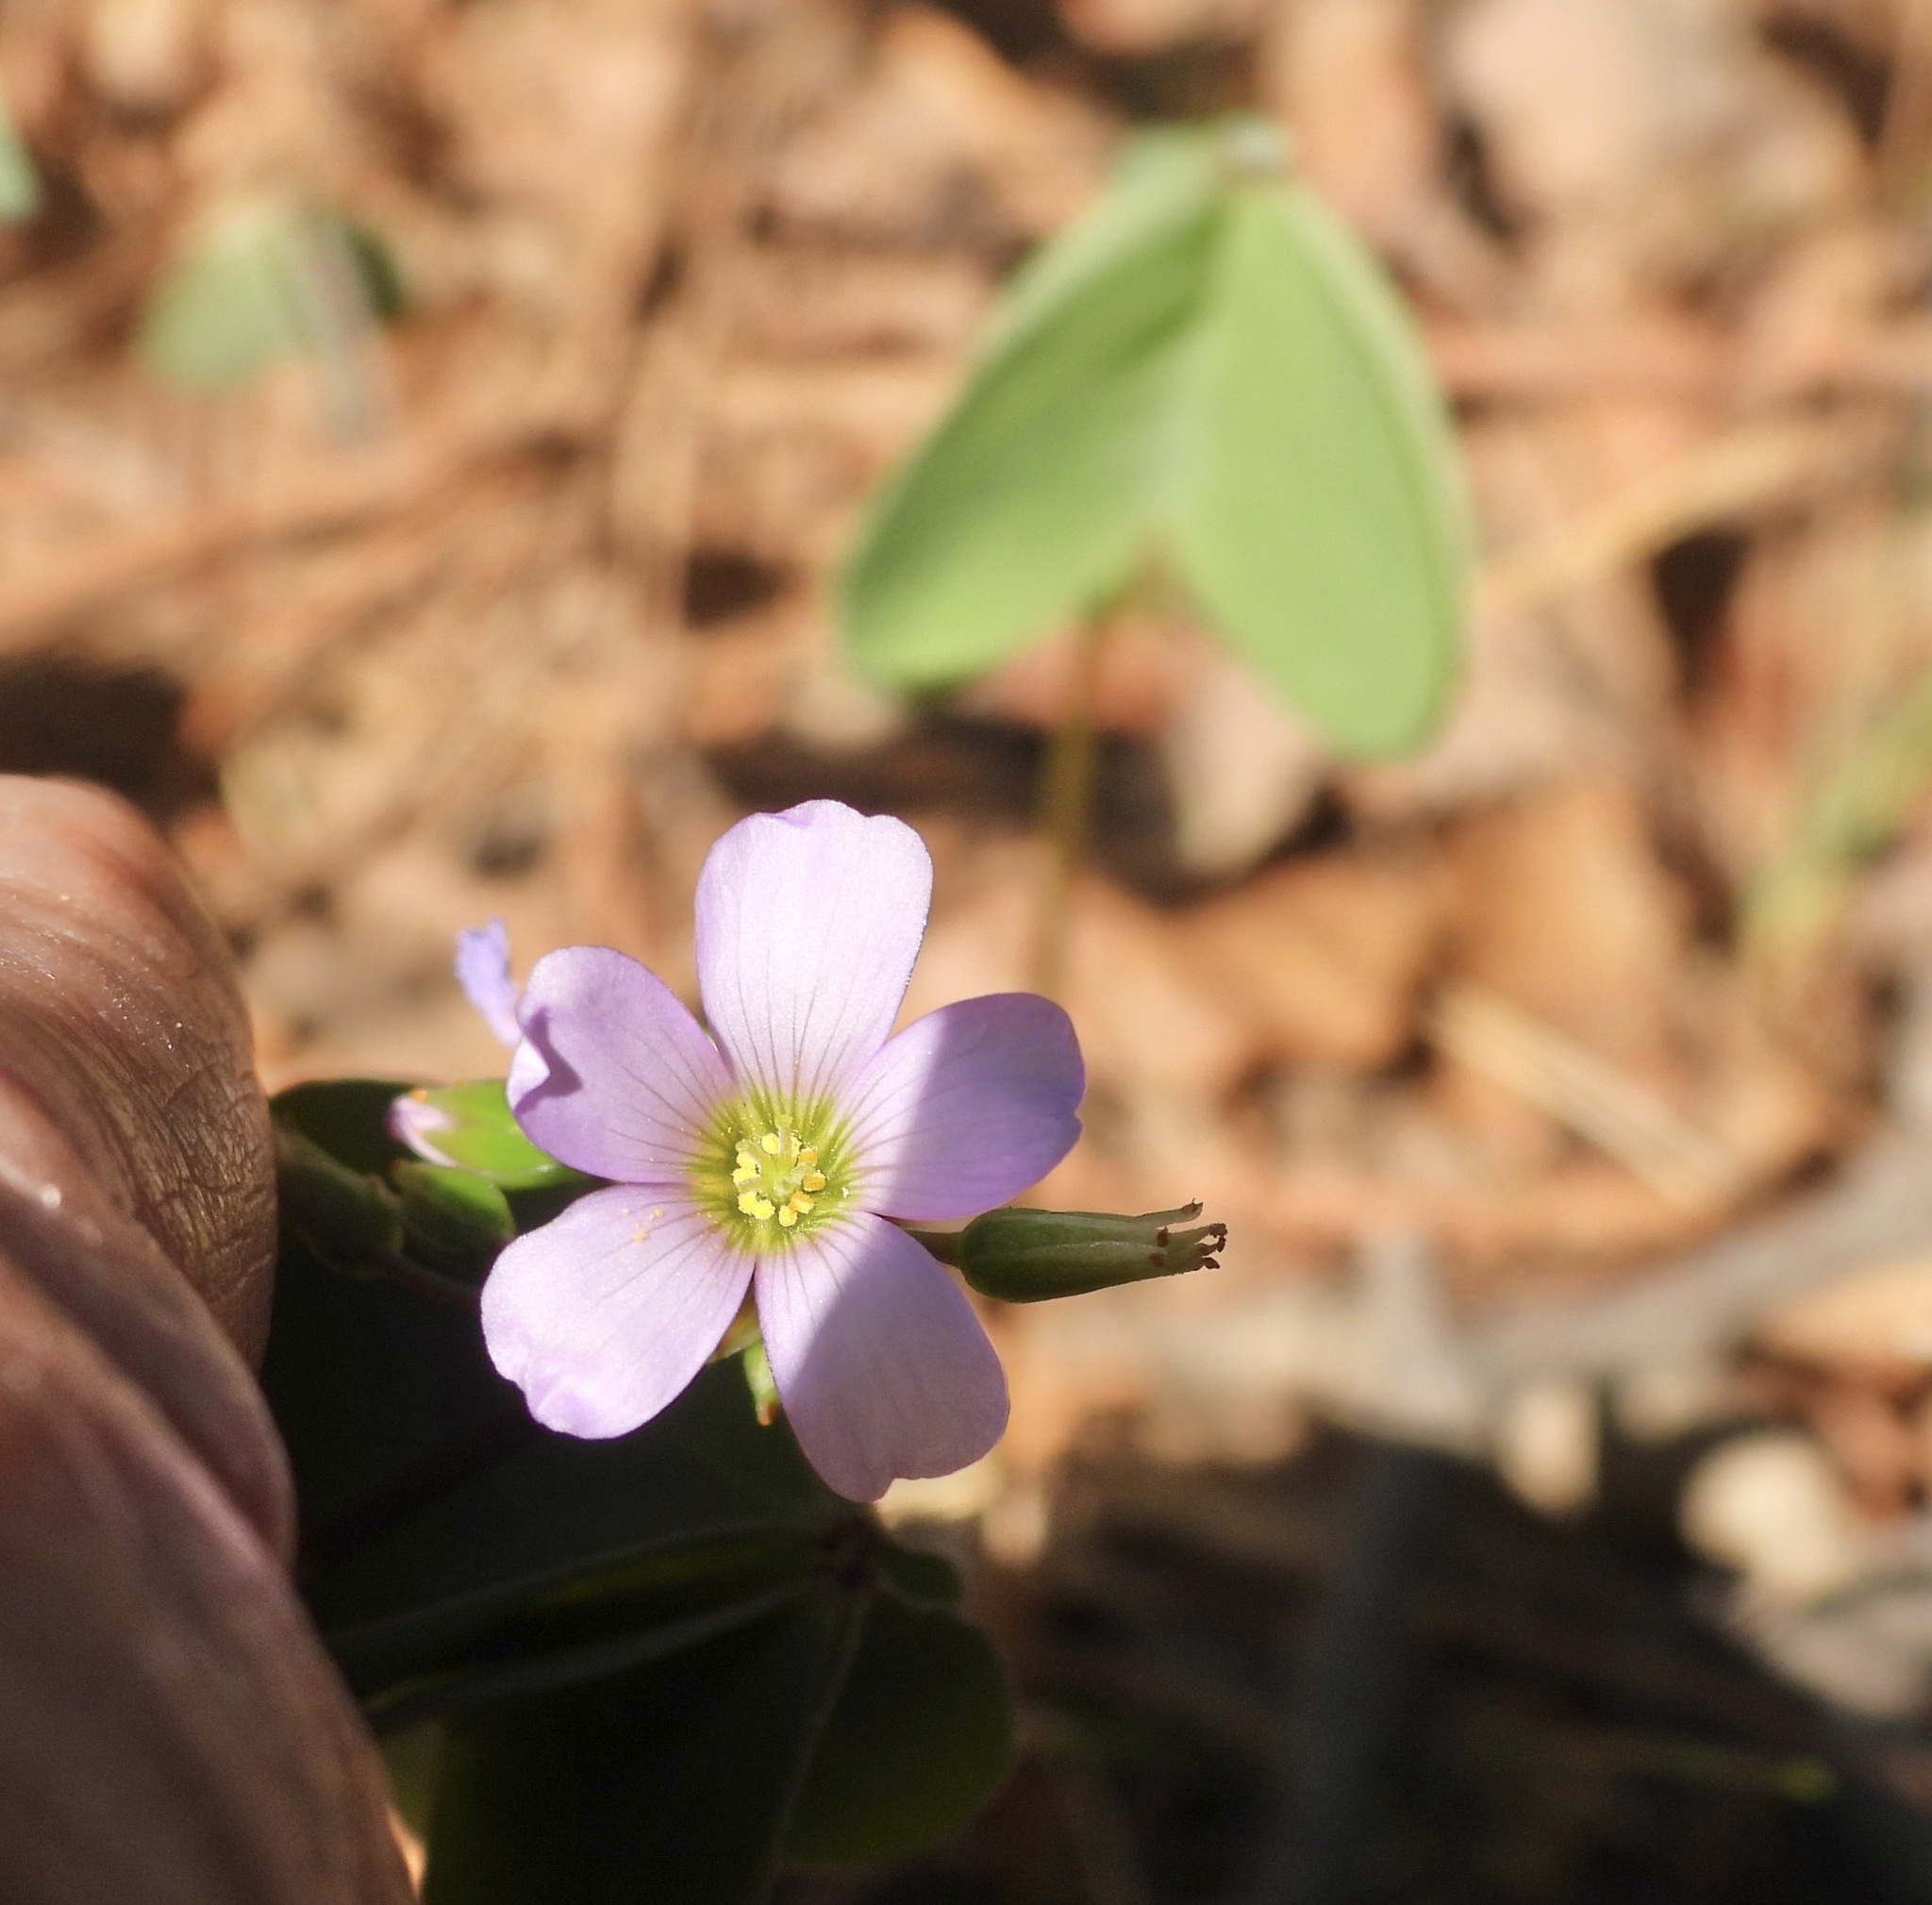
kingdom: Plantae
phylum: Tracheophyta
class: Magnoliopsida
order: Oxalidales
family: Oxalidaceae
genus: Oxalis
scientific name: Oxalis caerulea
